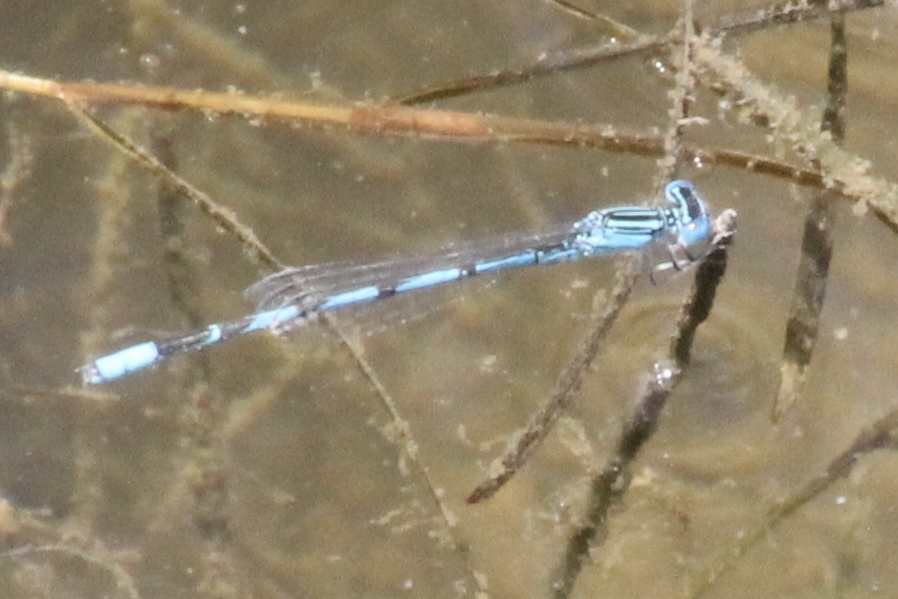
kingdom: Animalia
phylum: Arthropoda
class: Insecta
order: Odonata
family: Coenagrionidae
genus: Enallagma
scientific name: Enallagma basidens
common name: Double-striped bluet
